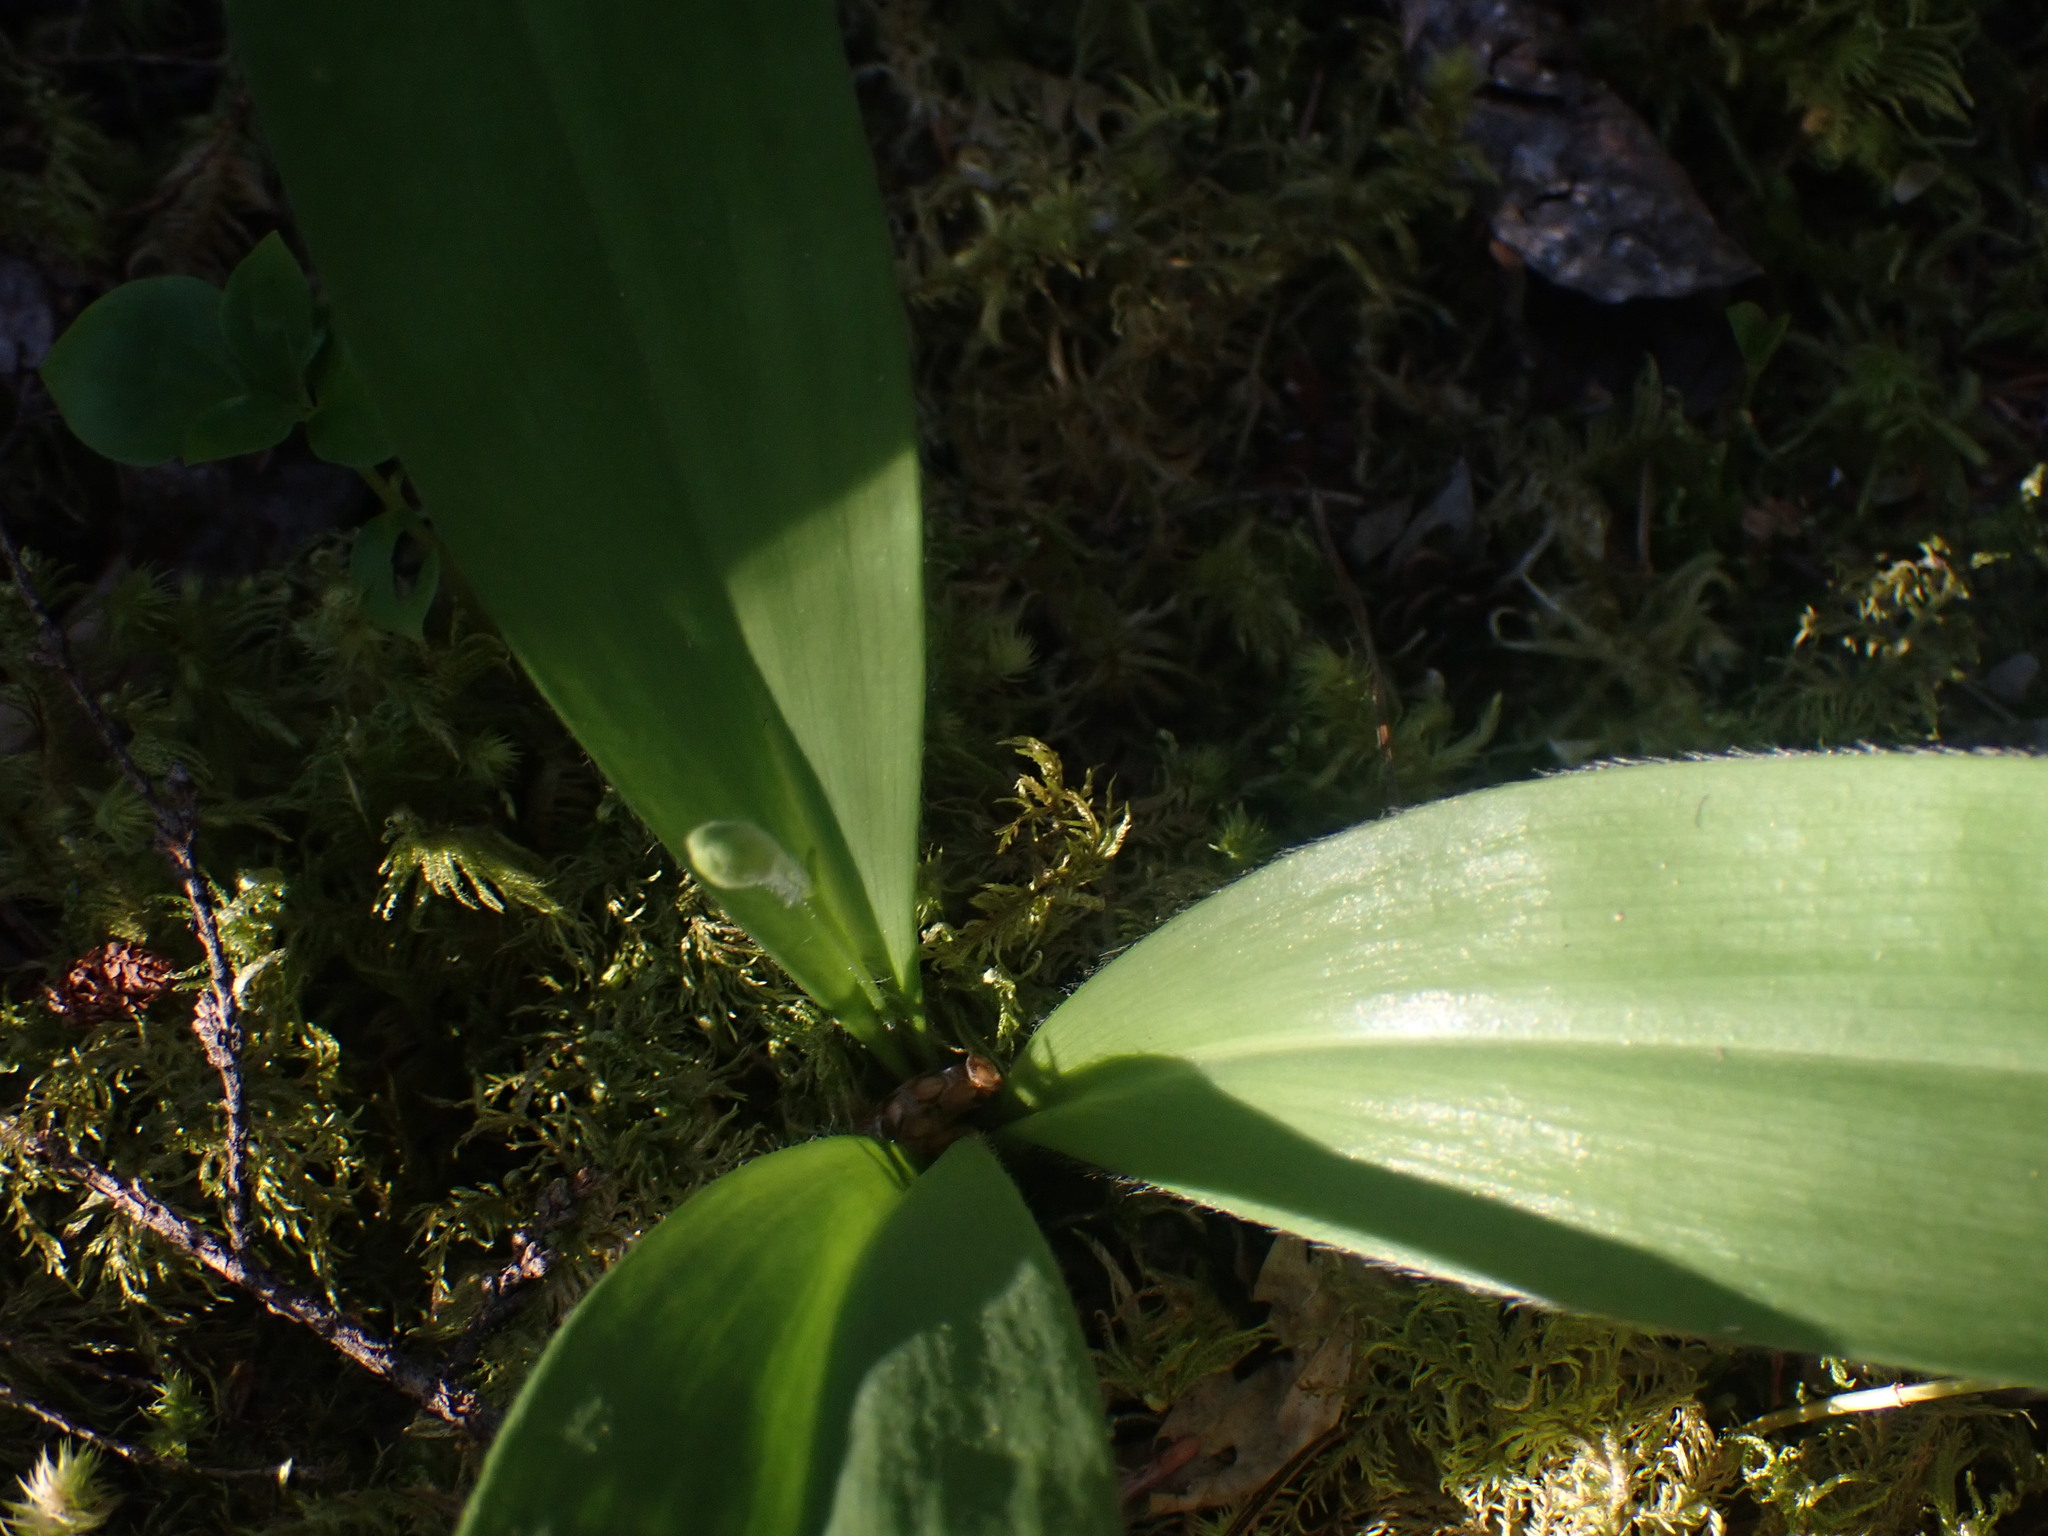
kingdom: Plantae
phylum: Tracheophyta
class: Liliopsida
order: Liliales
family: Liliaceae
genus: Clintonia
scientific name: Clintonia uniflora
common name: Queen's cup
